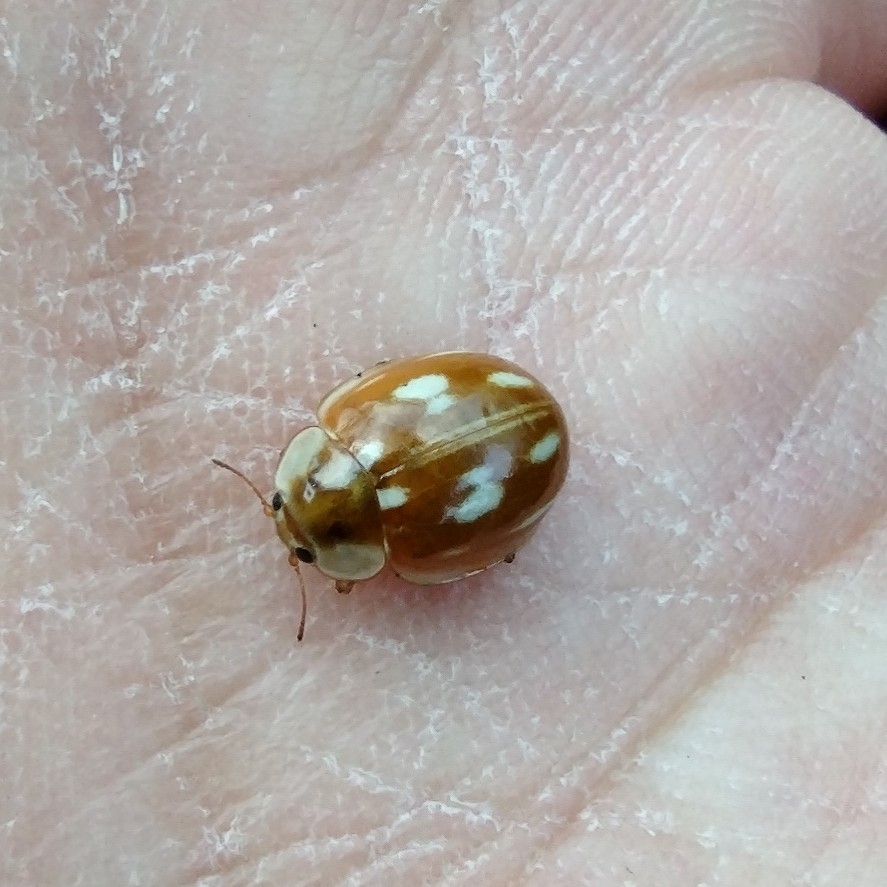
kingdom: Animalia
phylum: Arthropoda
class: Insecta
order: Coleoptera
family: Coccinellidae
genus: Myzia
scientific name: Myzia oblongoguttata
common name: Striped ladybird
